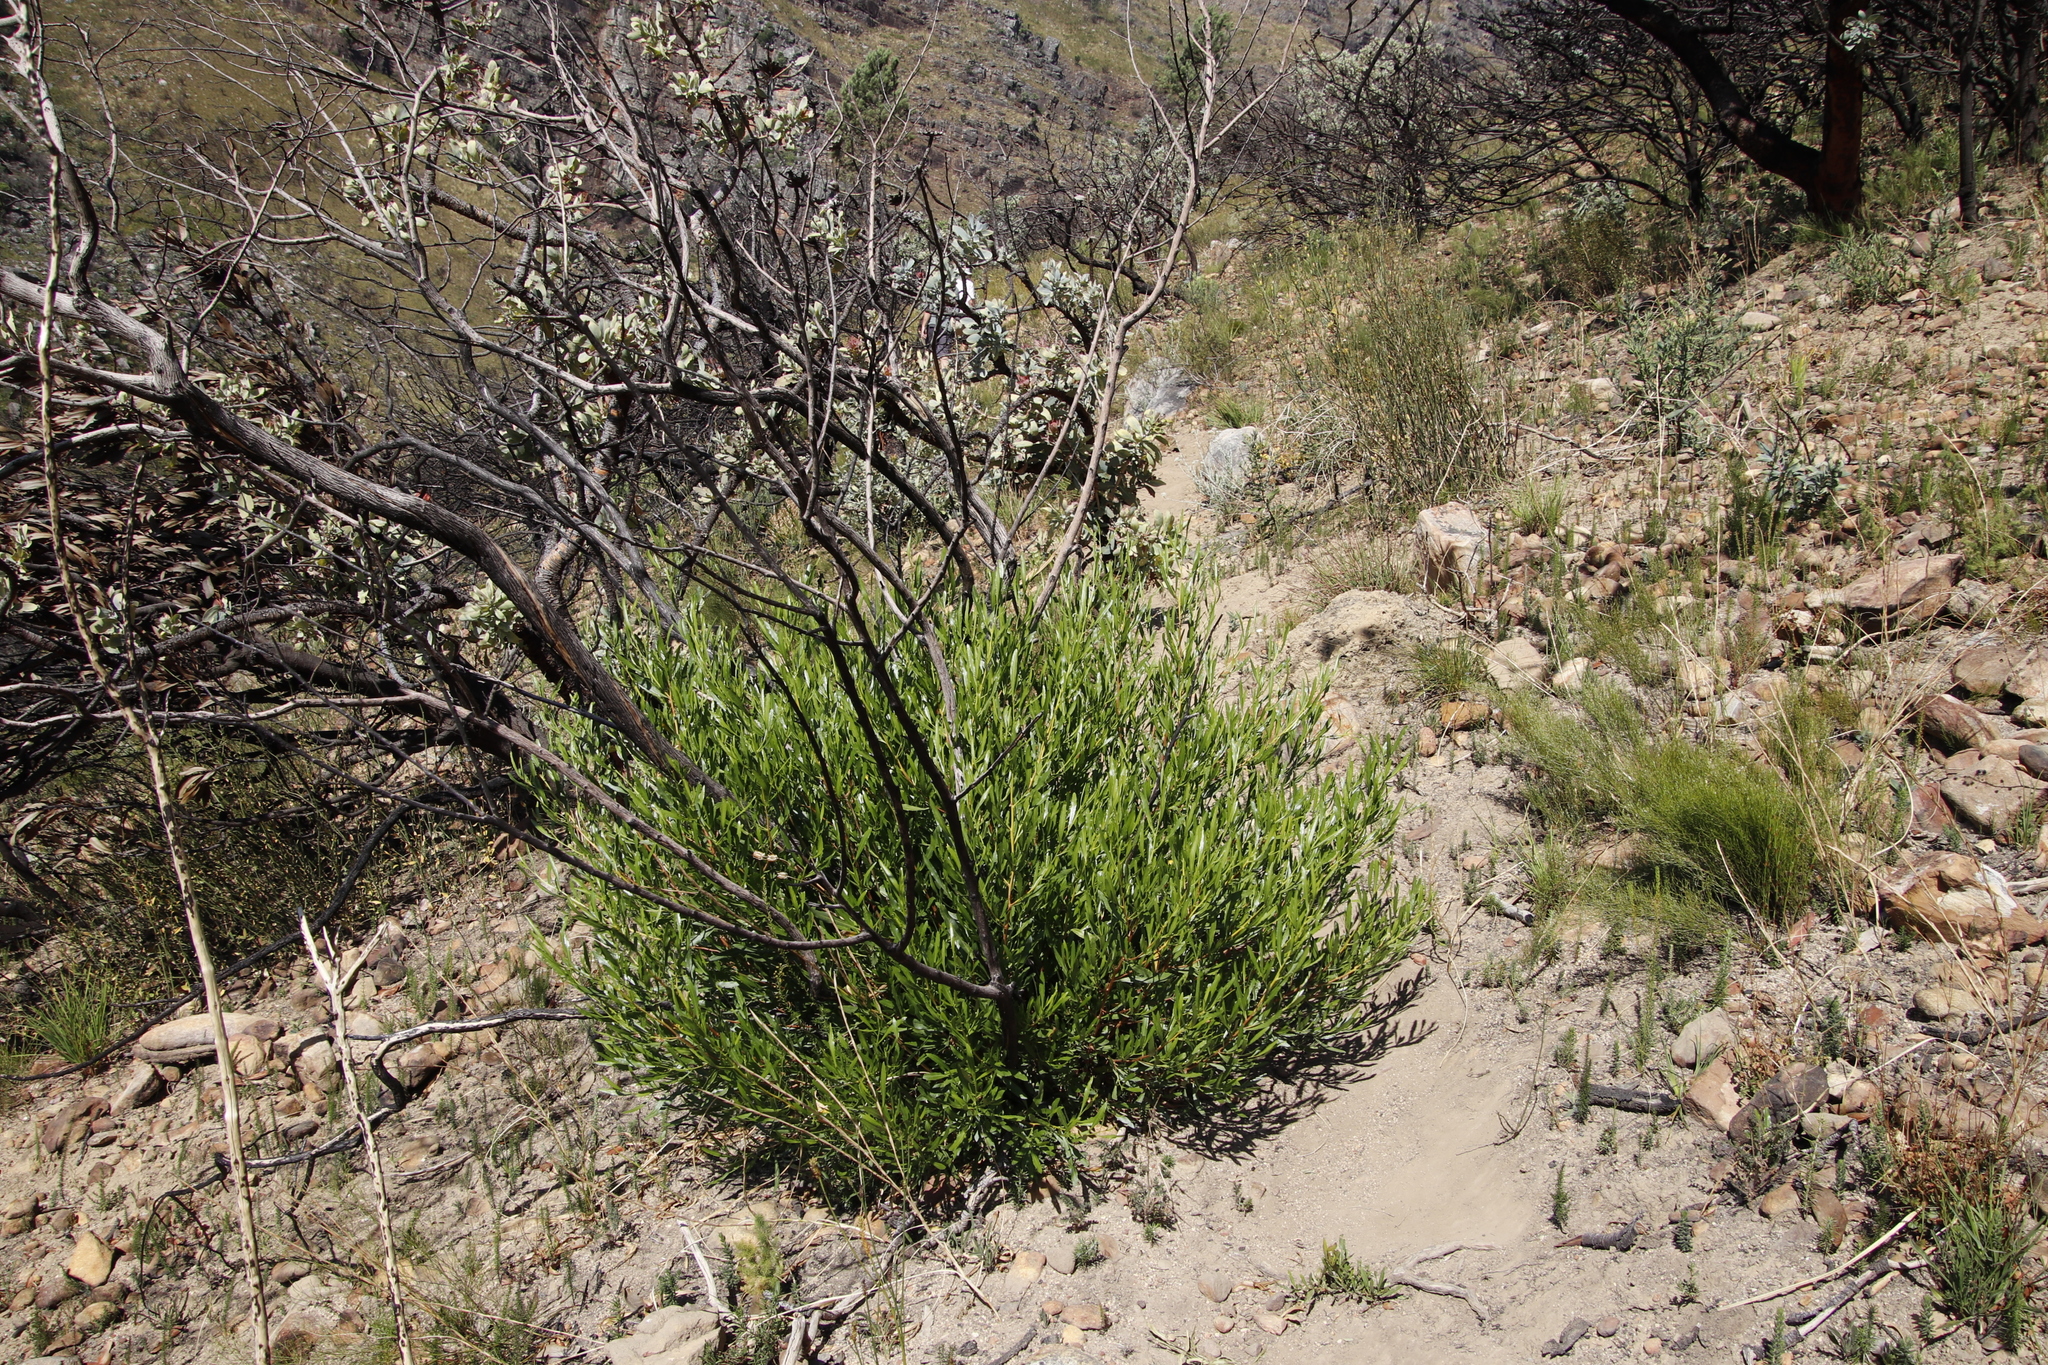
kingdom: Plantae
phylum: Tracheophyta
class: Magnoliopsida
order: Sapindales
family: Sapindaceae
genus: Dodonaea
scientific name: Dodonaea viscosa
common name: Hopbush
